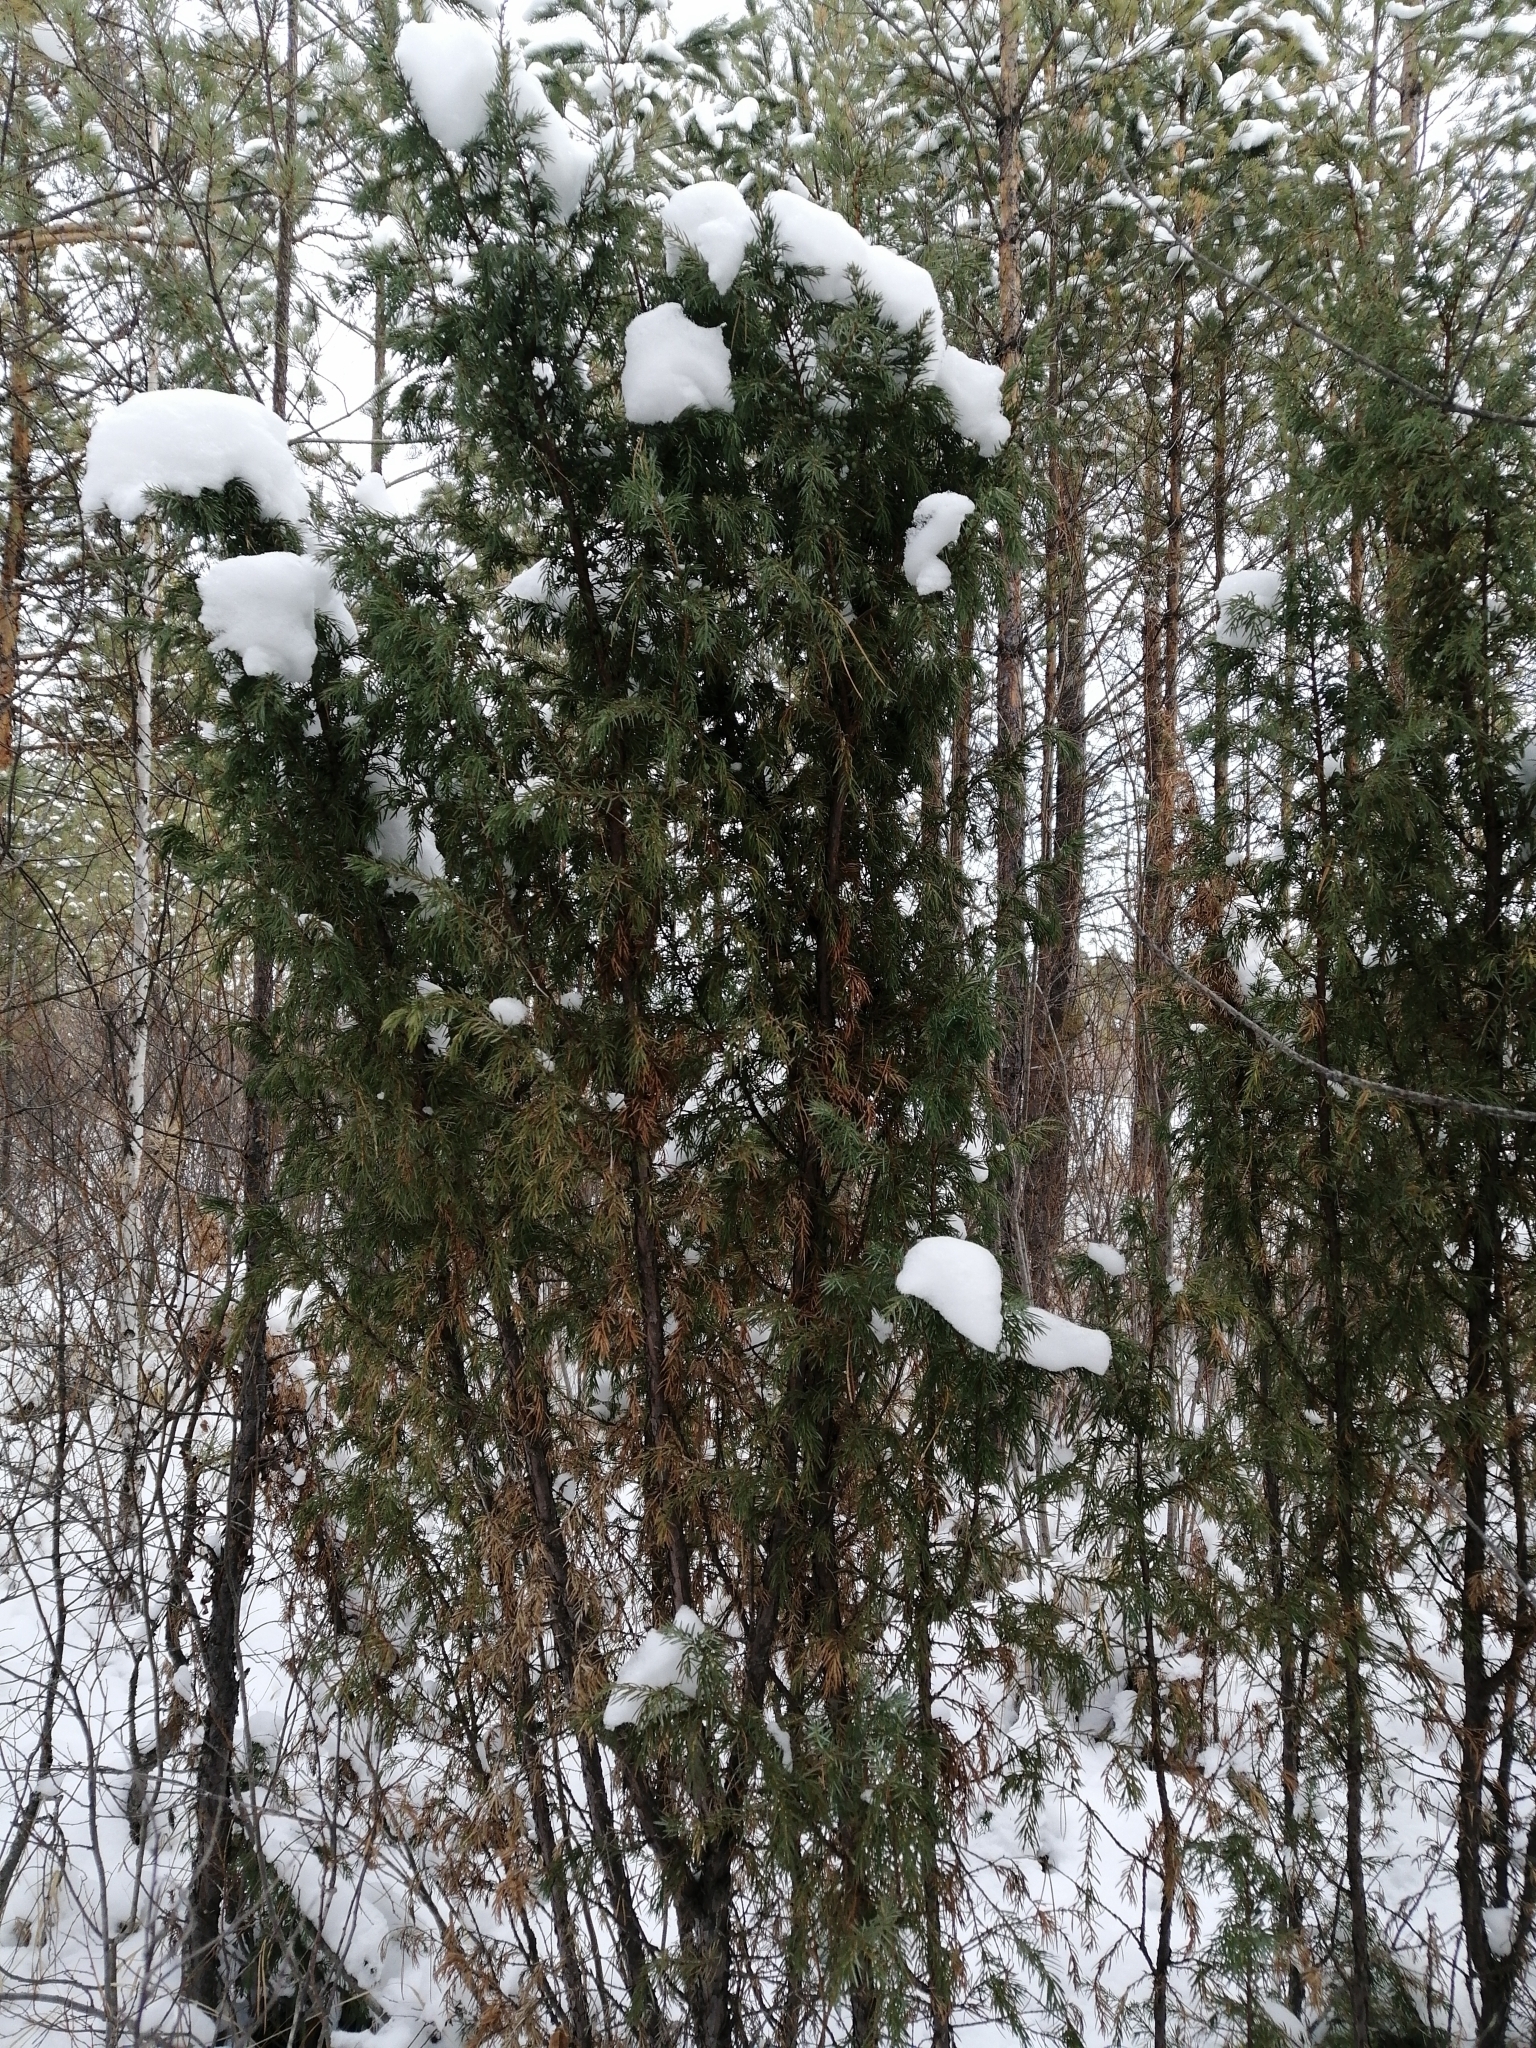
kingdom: Plantae
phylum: Tracheophyta
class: Pinopsida
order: Pinales
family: Cupressaceae
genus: Juniperus
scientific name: Juniperus communis
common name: Common juniper
